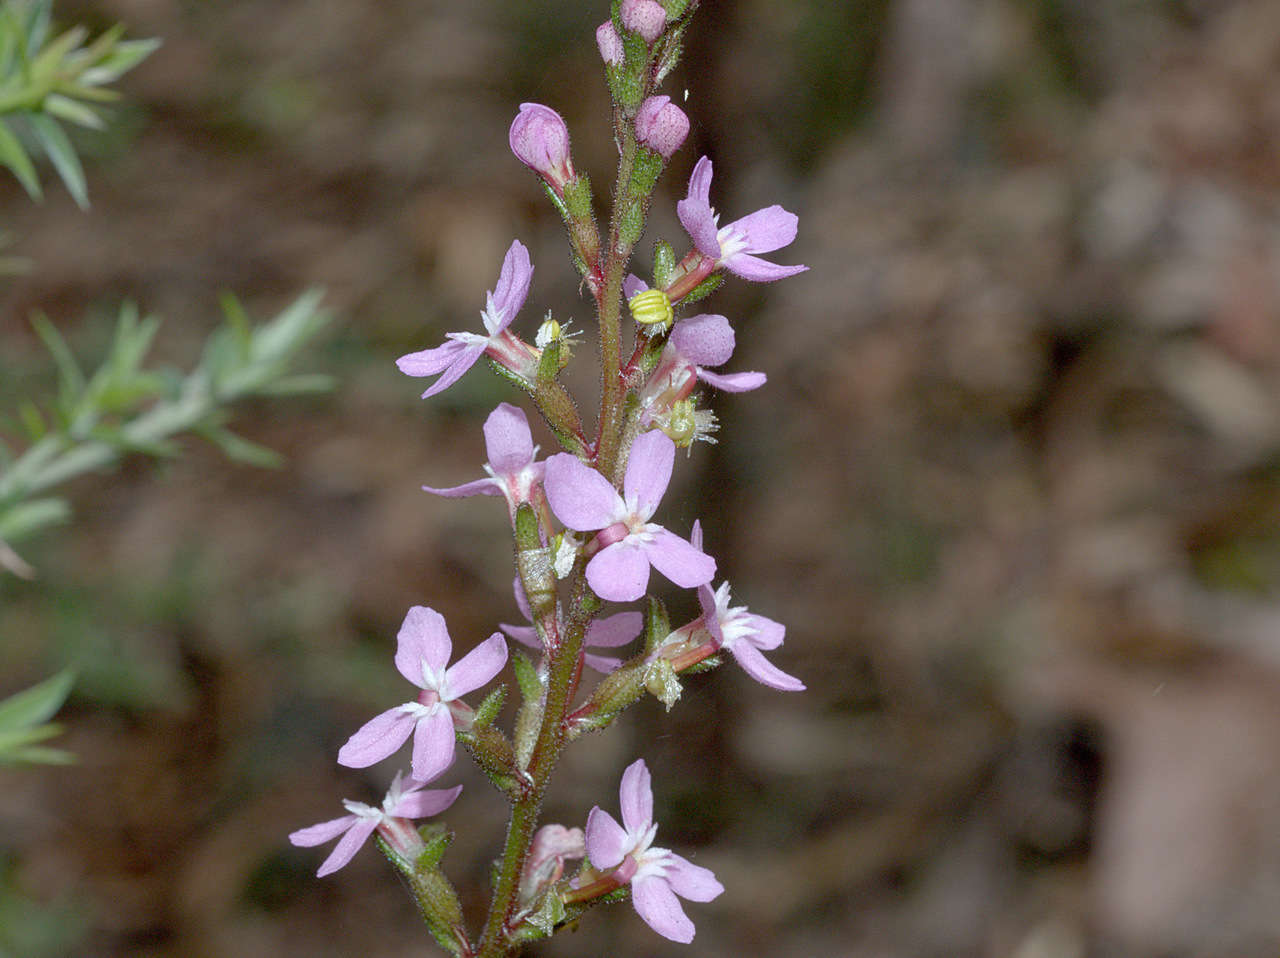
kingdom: Plantae
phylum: Tracheophyta
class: Magnoliopsida
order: Asterales
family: Stylidiaceae
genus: Stylidium
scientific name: Stylidium graminifolium
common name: Grass triggerplant
